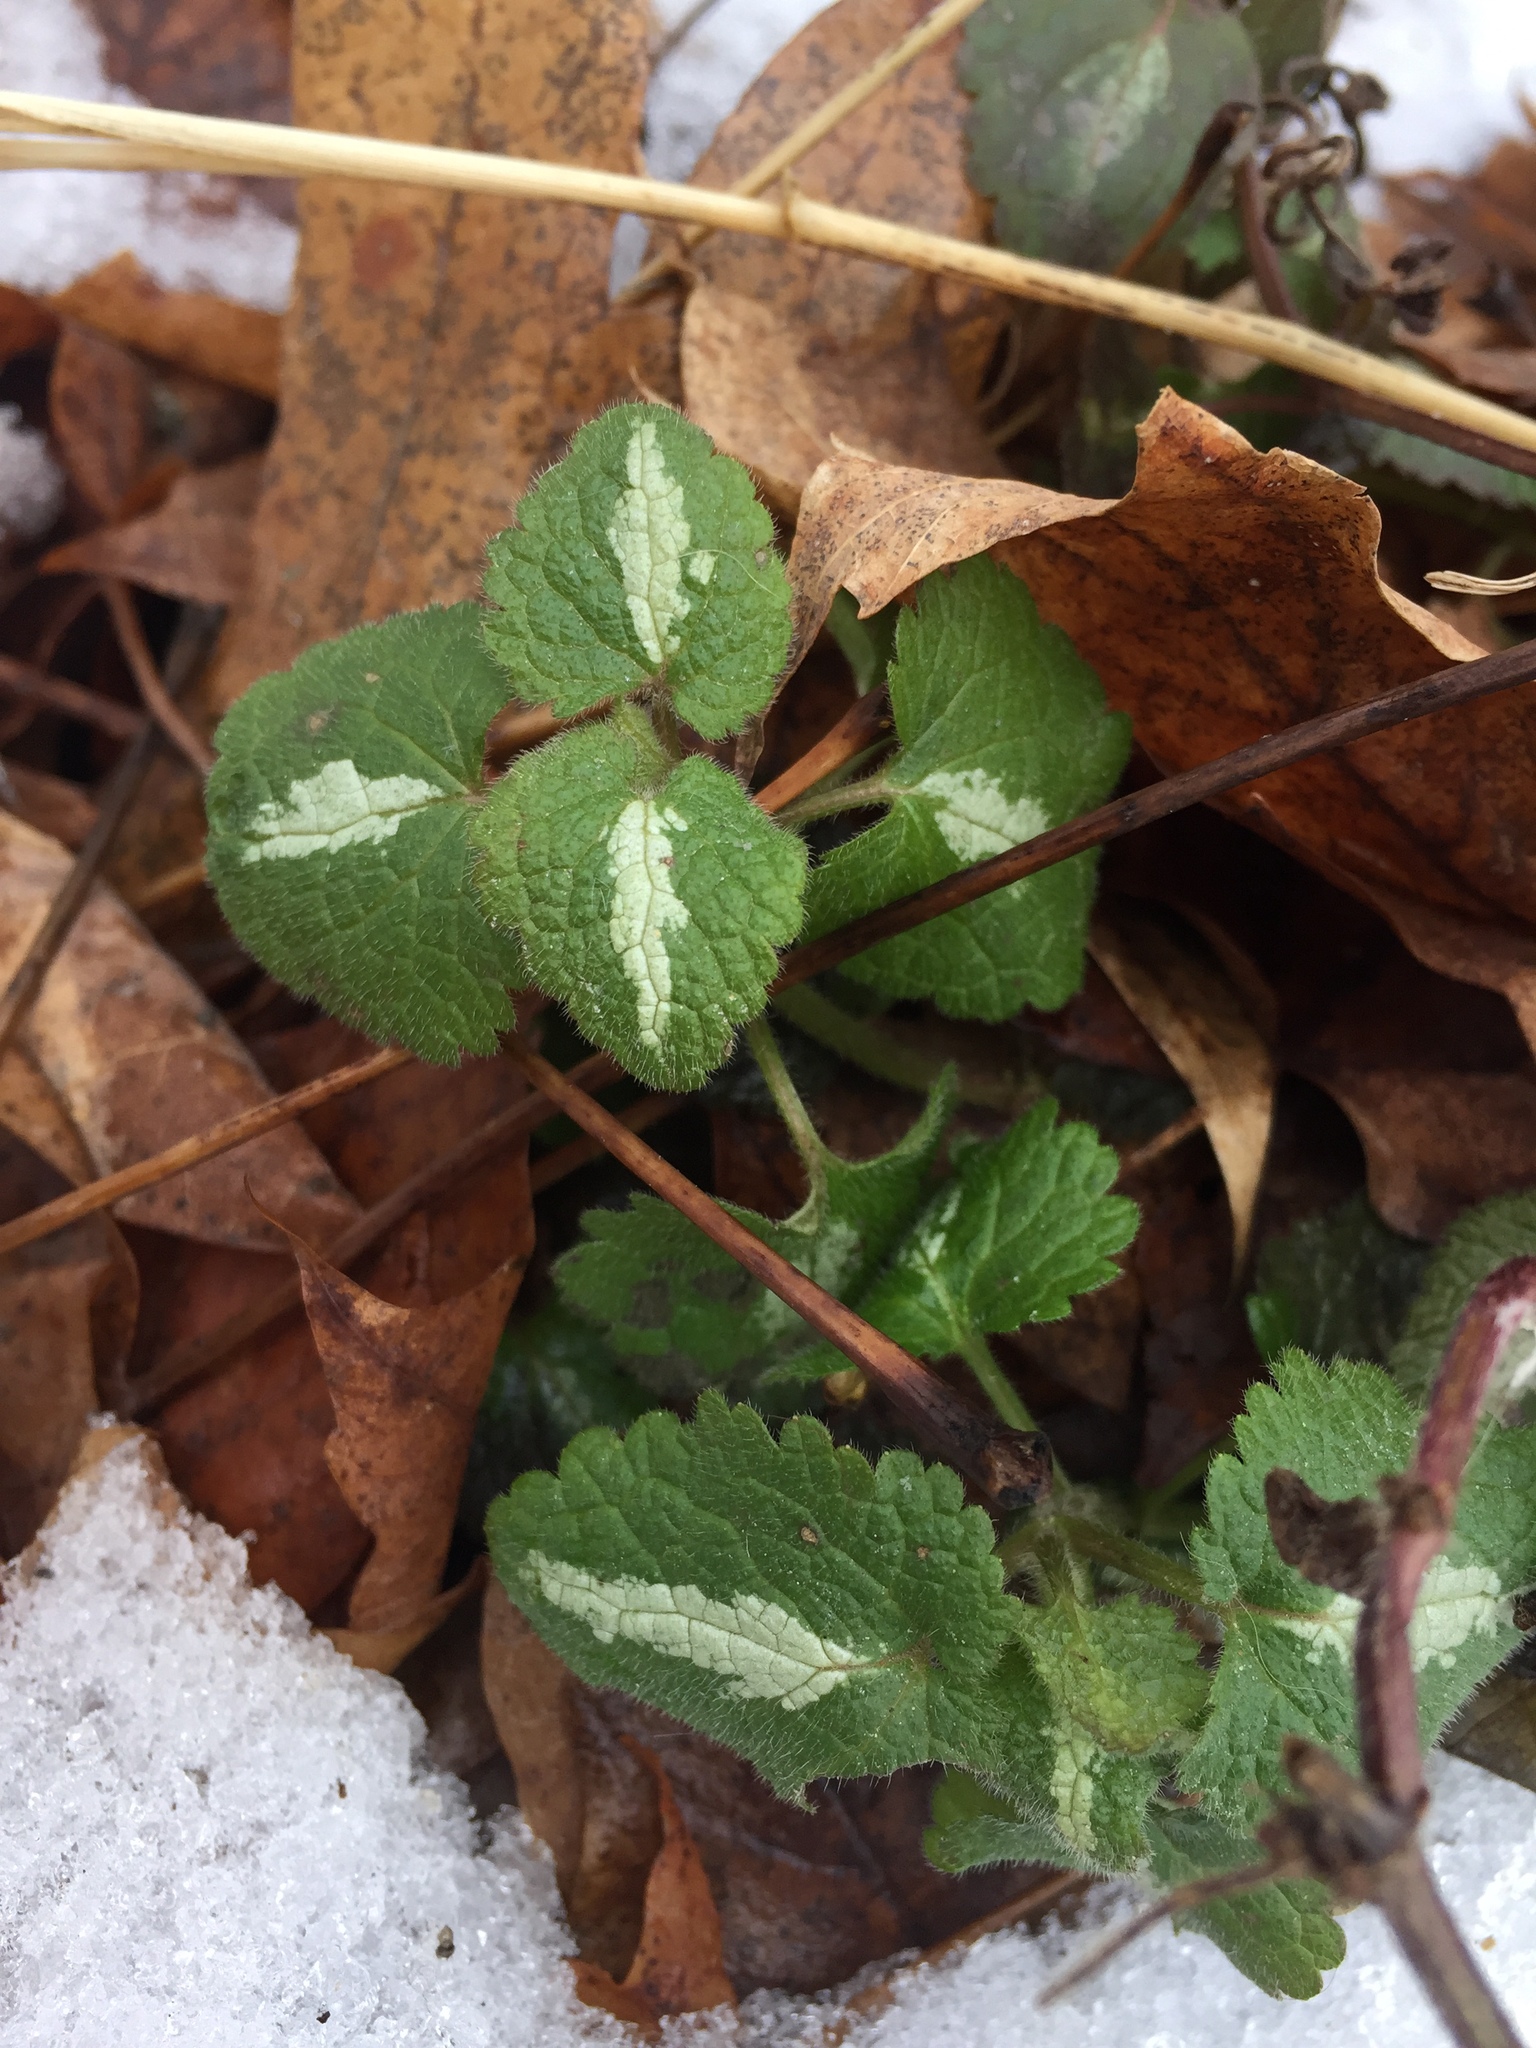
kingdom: Plantae
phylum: Tracheophyta
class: Magnoliopsida
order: Lamiales
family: Lamiaceae
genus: Lamium
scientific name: Lamium maculatum
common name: Spotted dead-nettle
